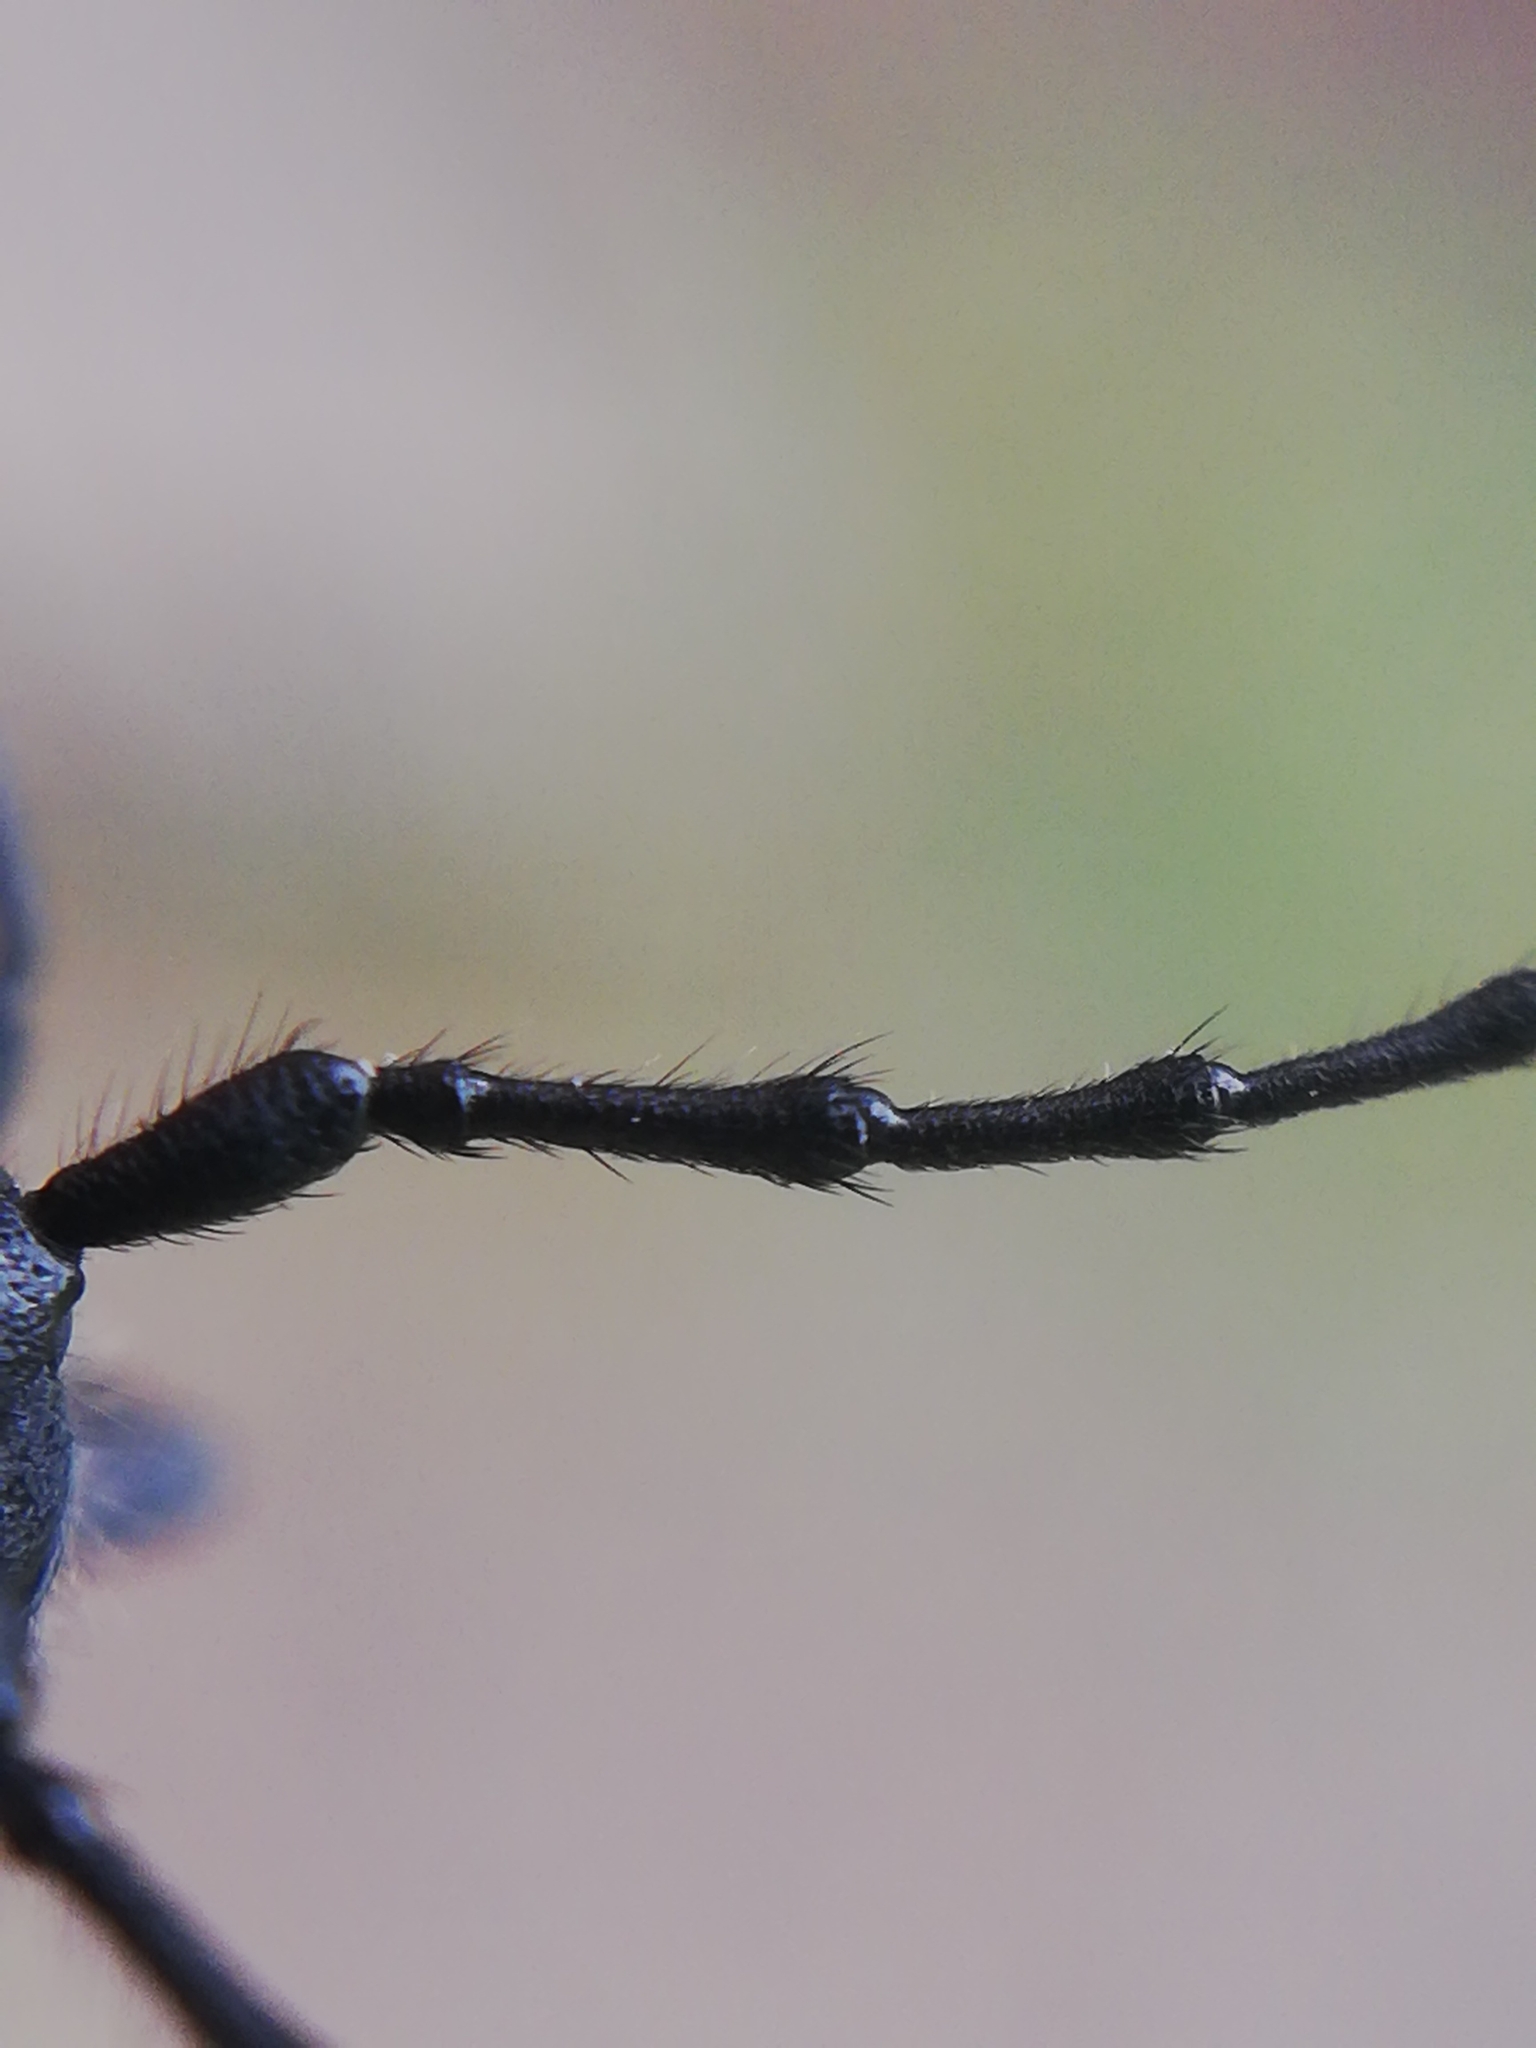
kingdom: Animalia
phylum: Arthropoda
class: Insecta
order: Coleoptera
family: Cerambycidae
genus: Ropalopus
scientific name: Ropalopus macropus
